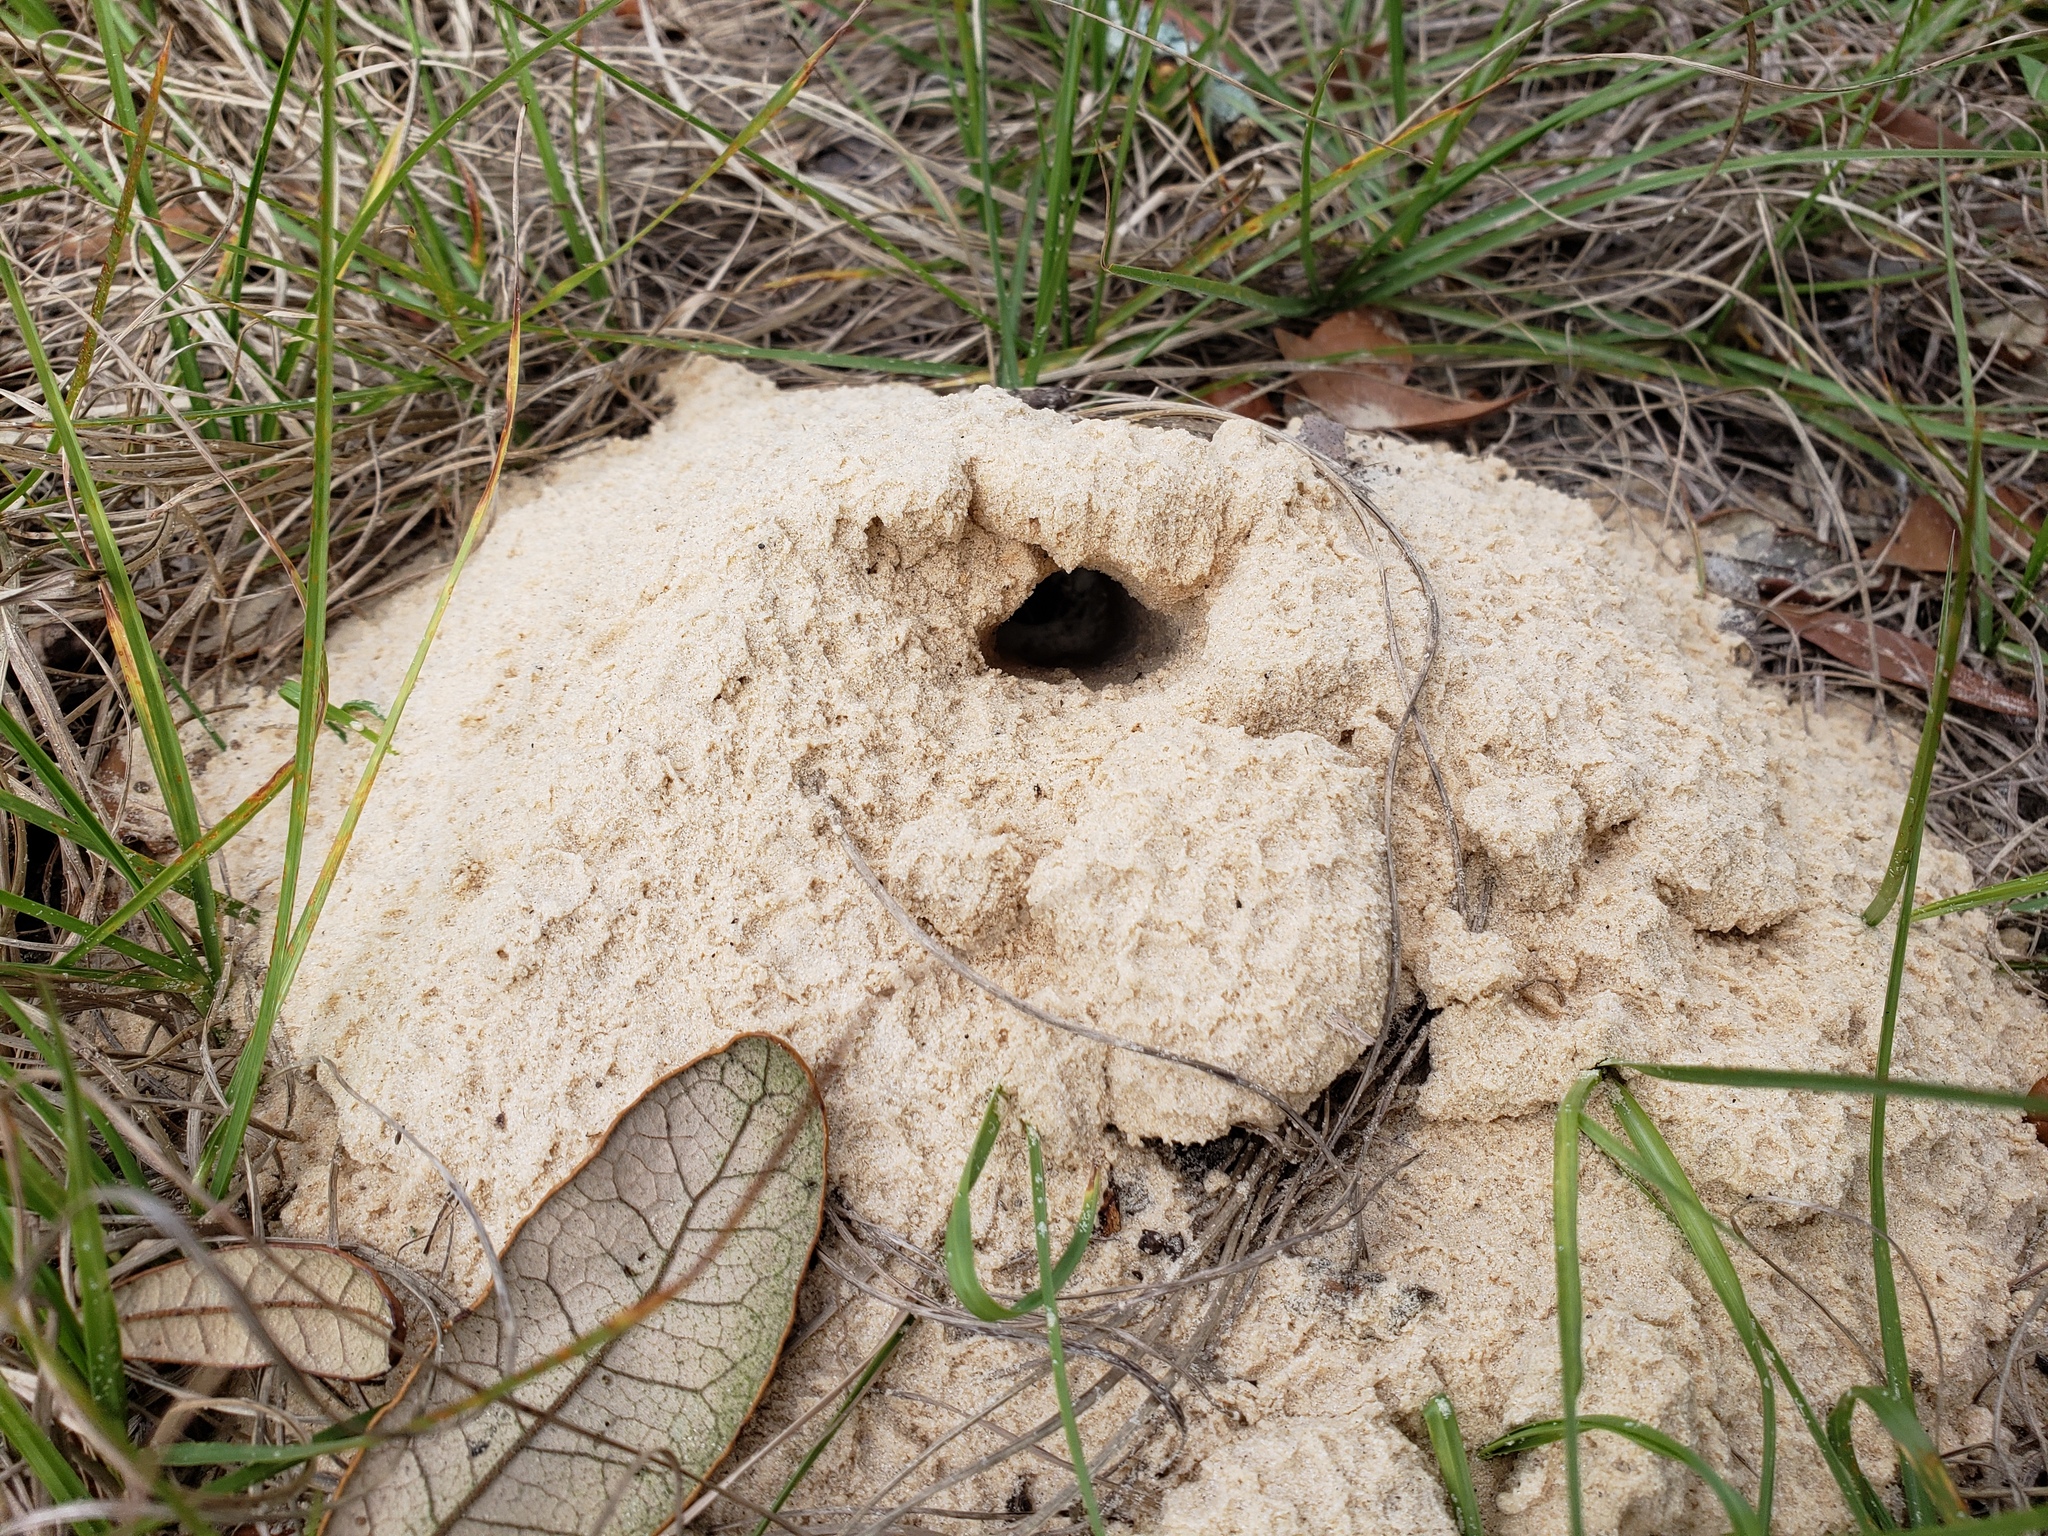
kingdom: Animalia
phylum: Arthropoda
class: Insecta
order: Coleoptera
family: Geotrupidae
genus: Peltotrupes
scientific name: Peltotrupes profundus
